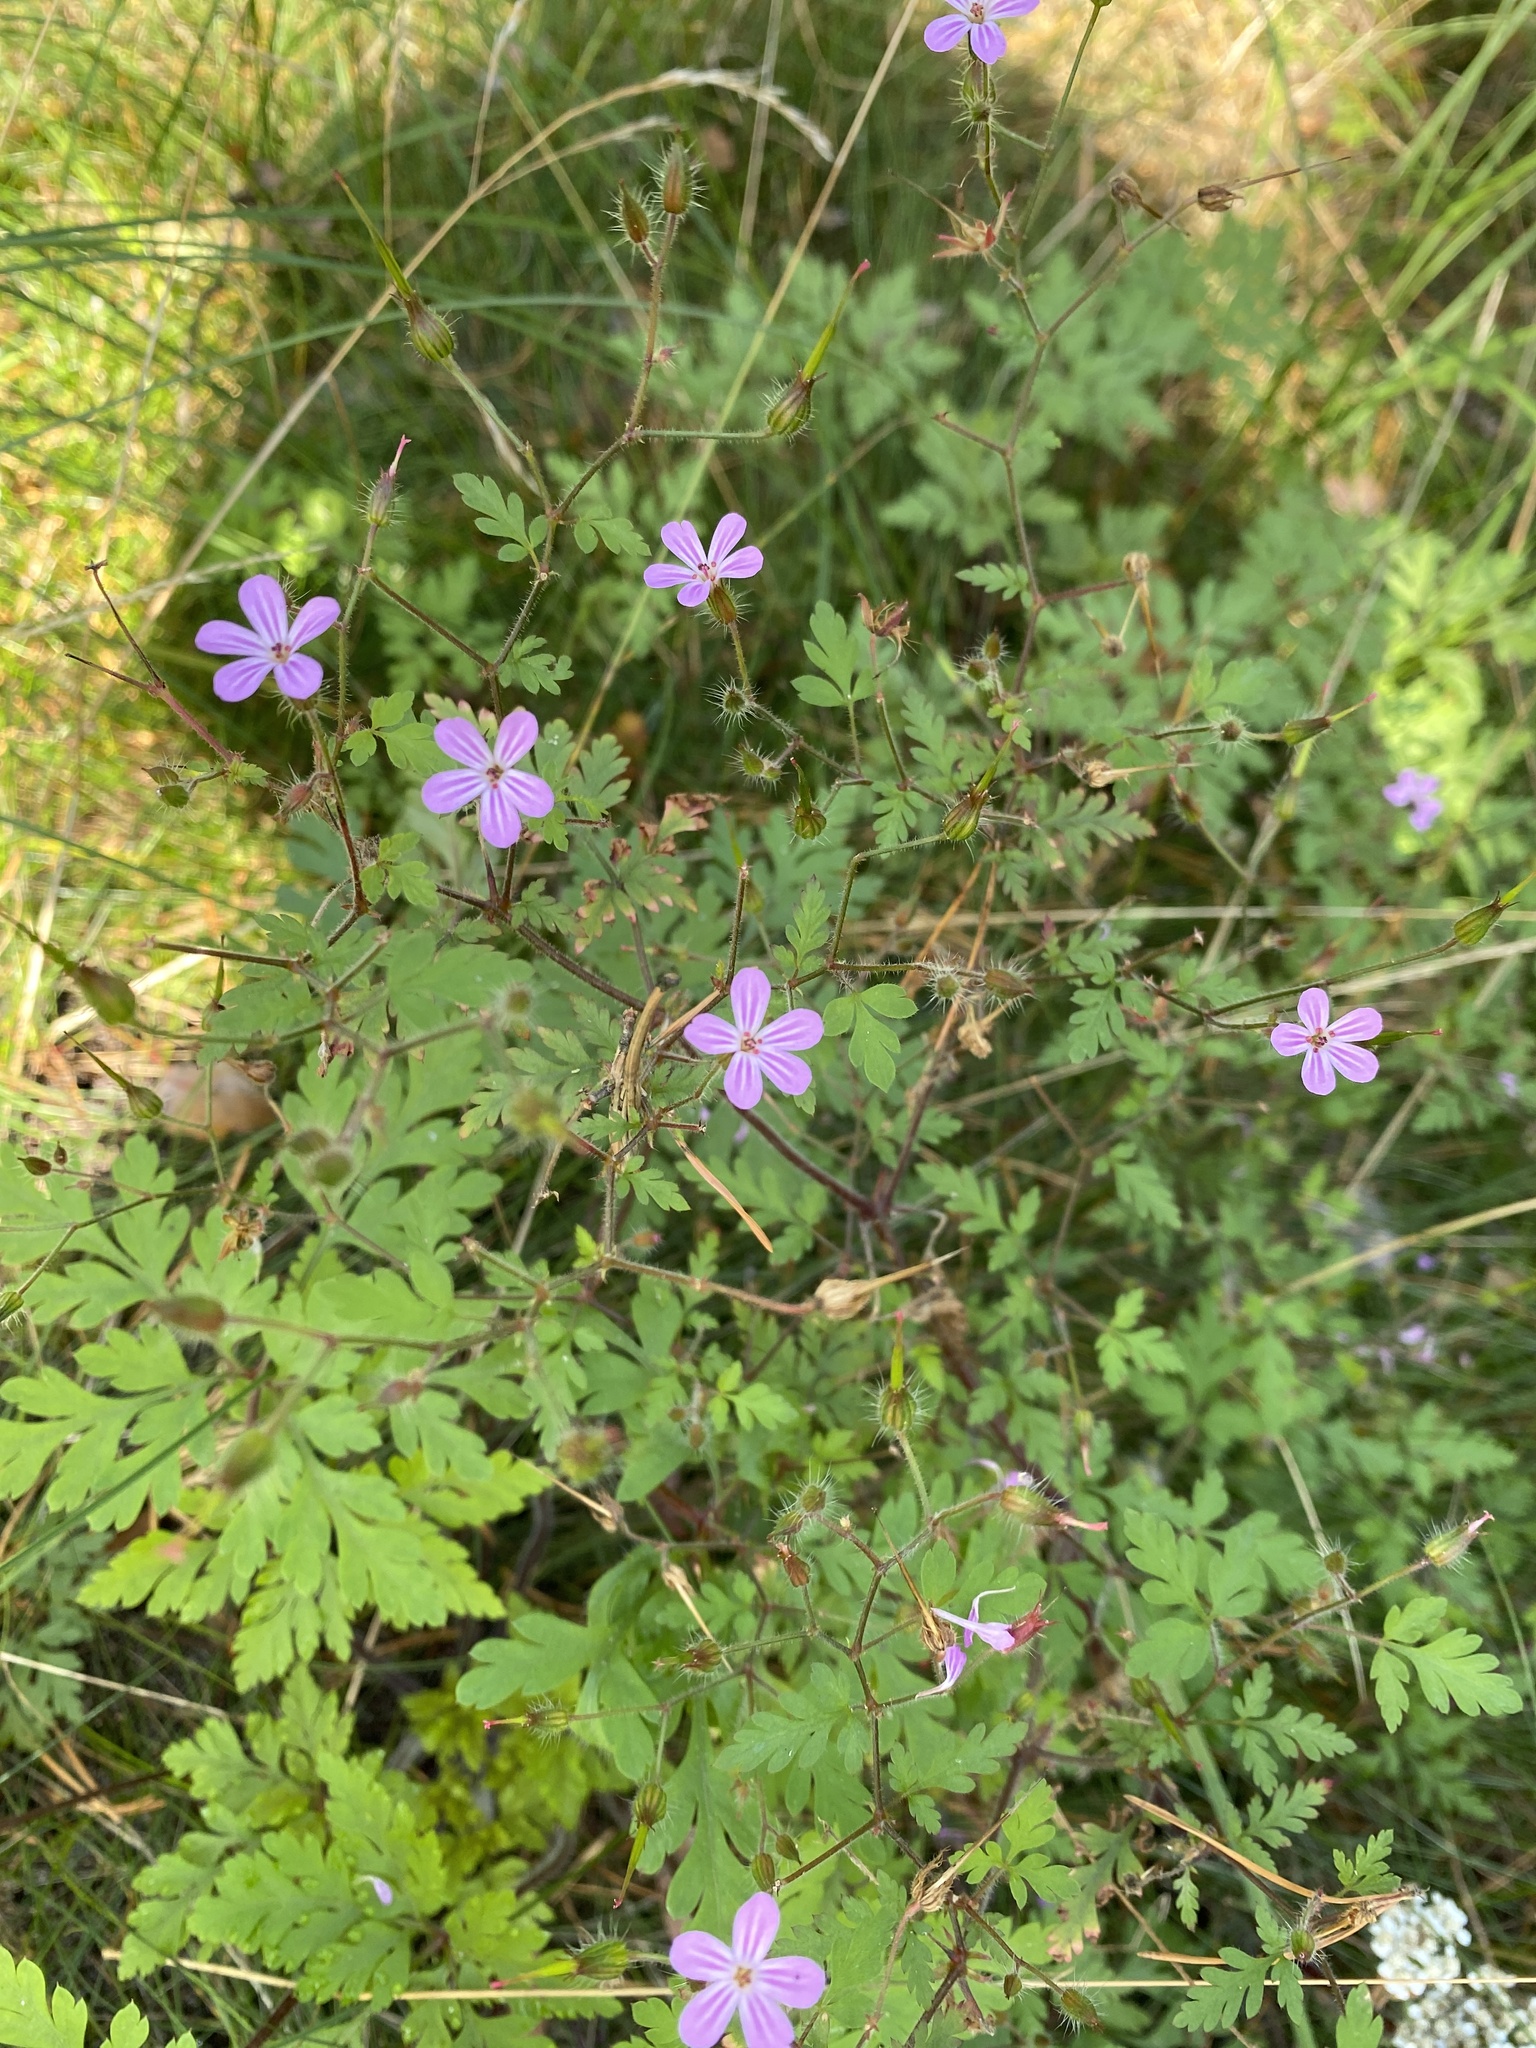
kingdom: Plantae
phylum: Tracheophyta
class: Magnoliopsida
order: Geraniales
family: Geraniaceae
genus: Geranium
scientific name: Geranium robertianum
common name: Herb-robert
